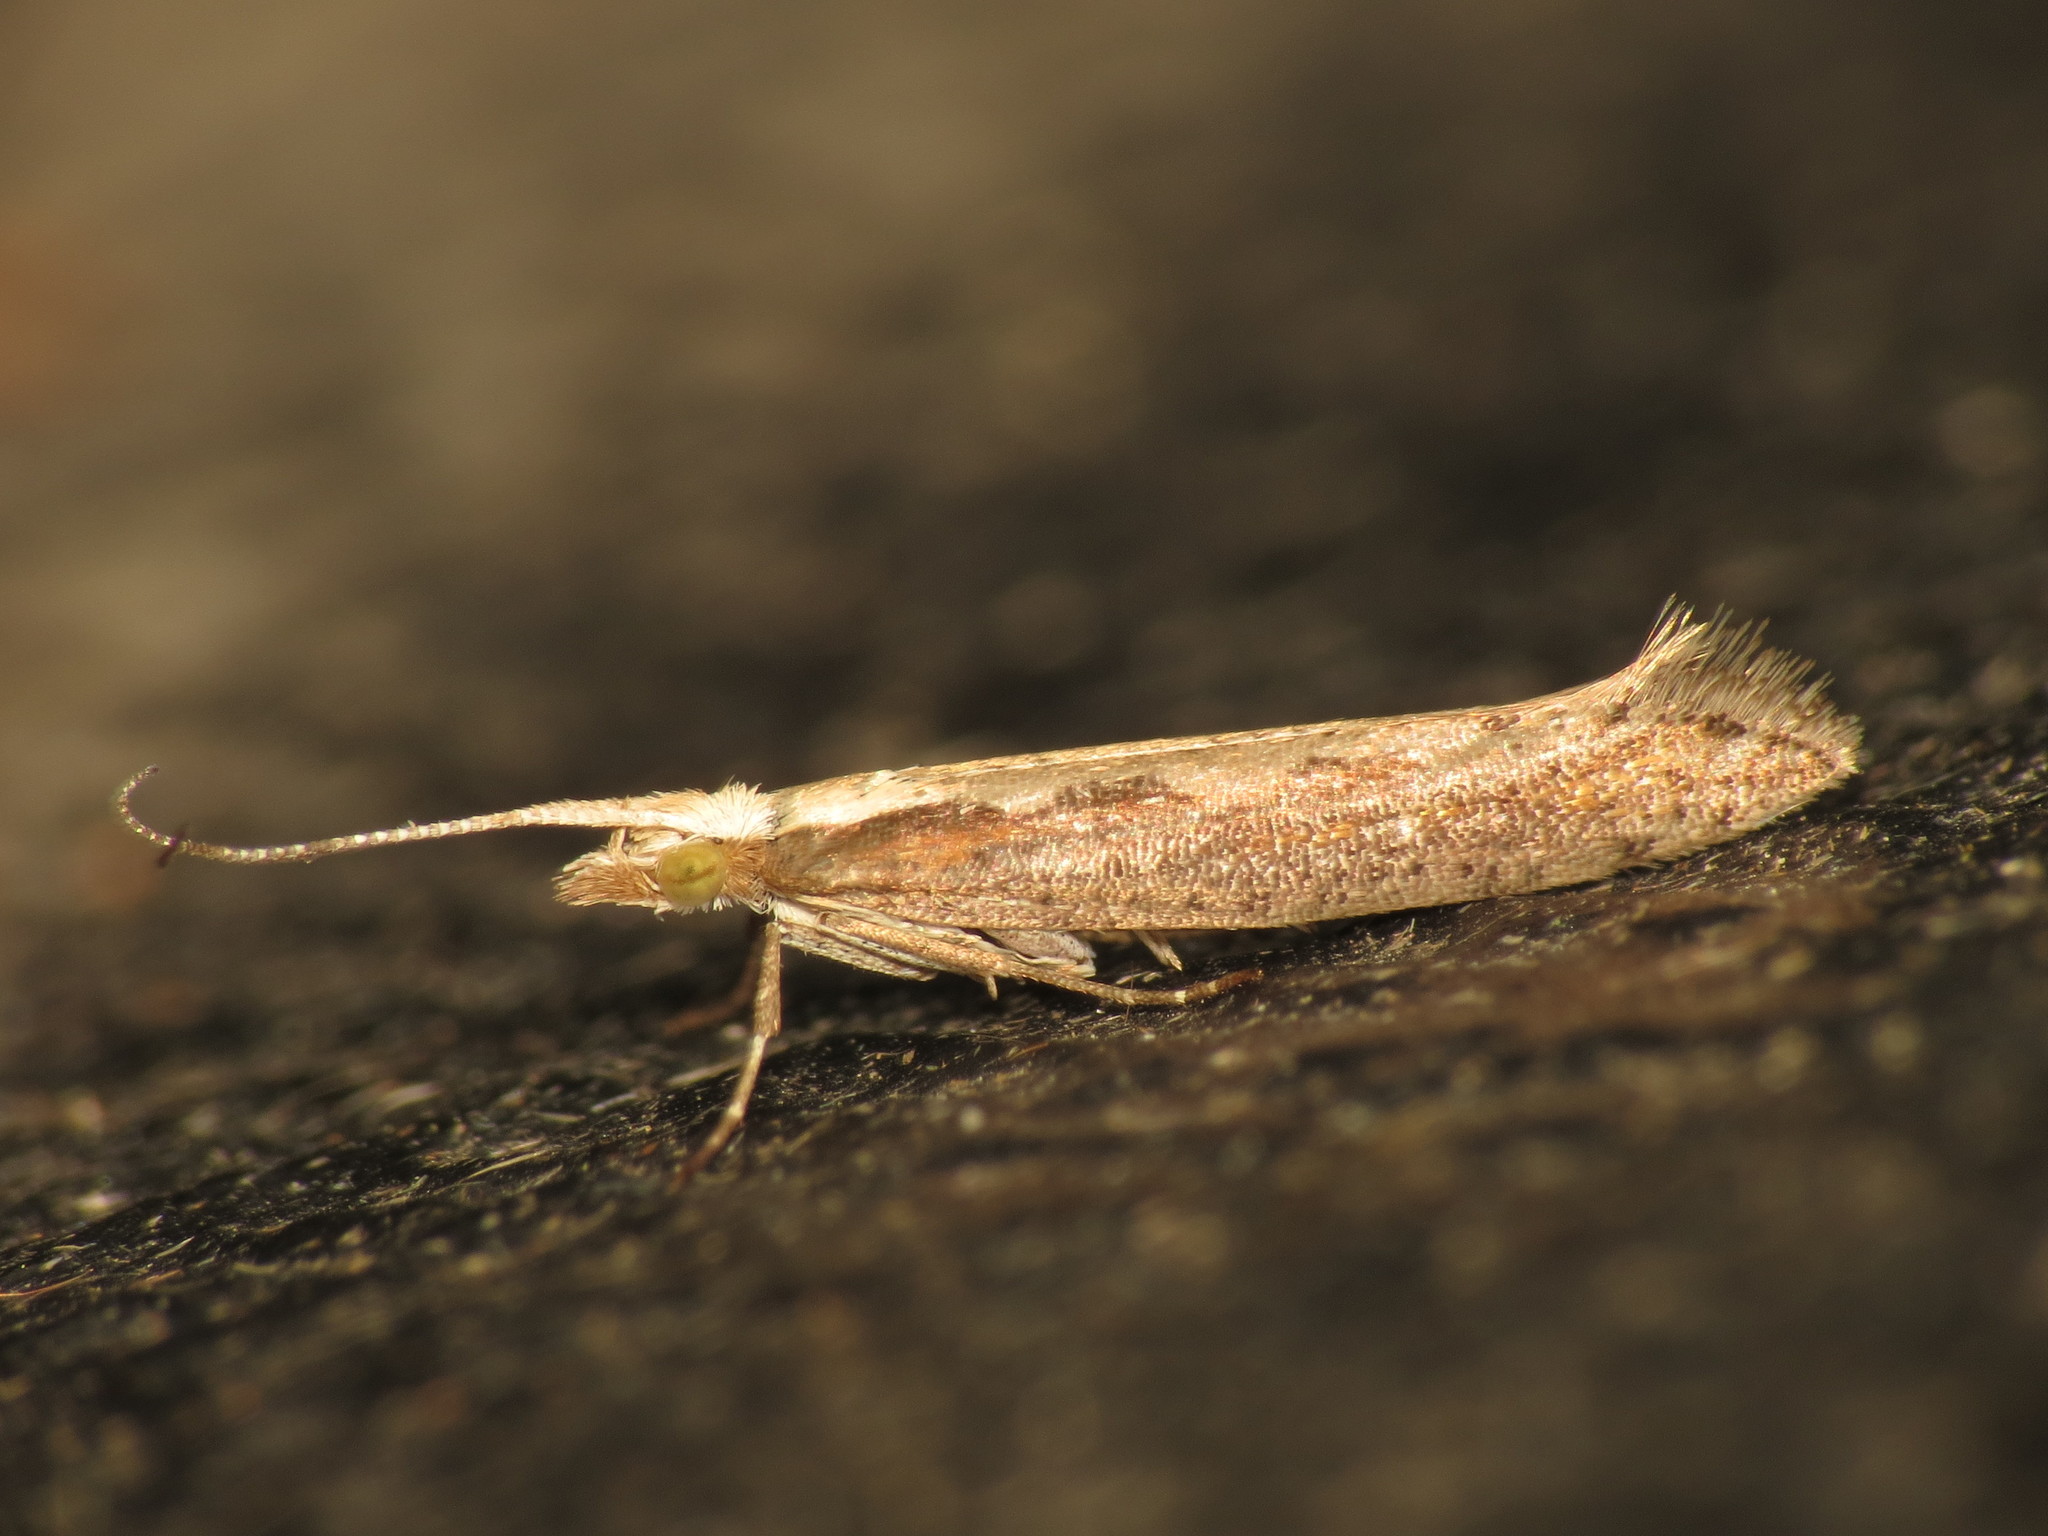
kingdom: Animalia
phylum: Arthropoda
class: Insecta
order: Lepidoptera
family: Plutellidae
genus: Plutella
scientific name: Plutella xylostella
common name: Diamond-back moth
